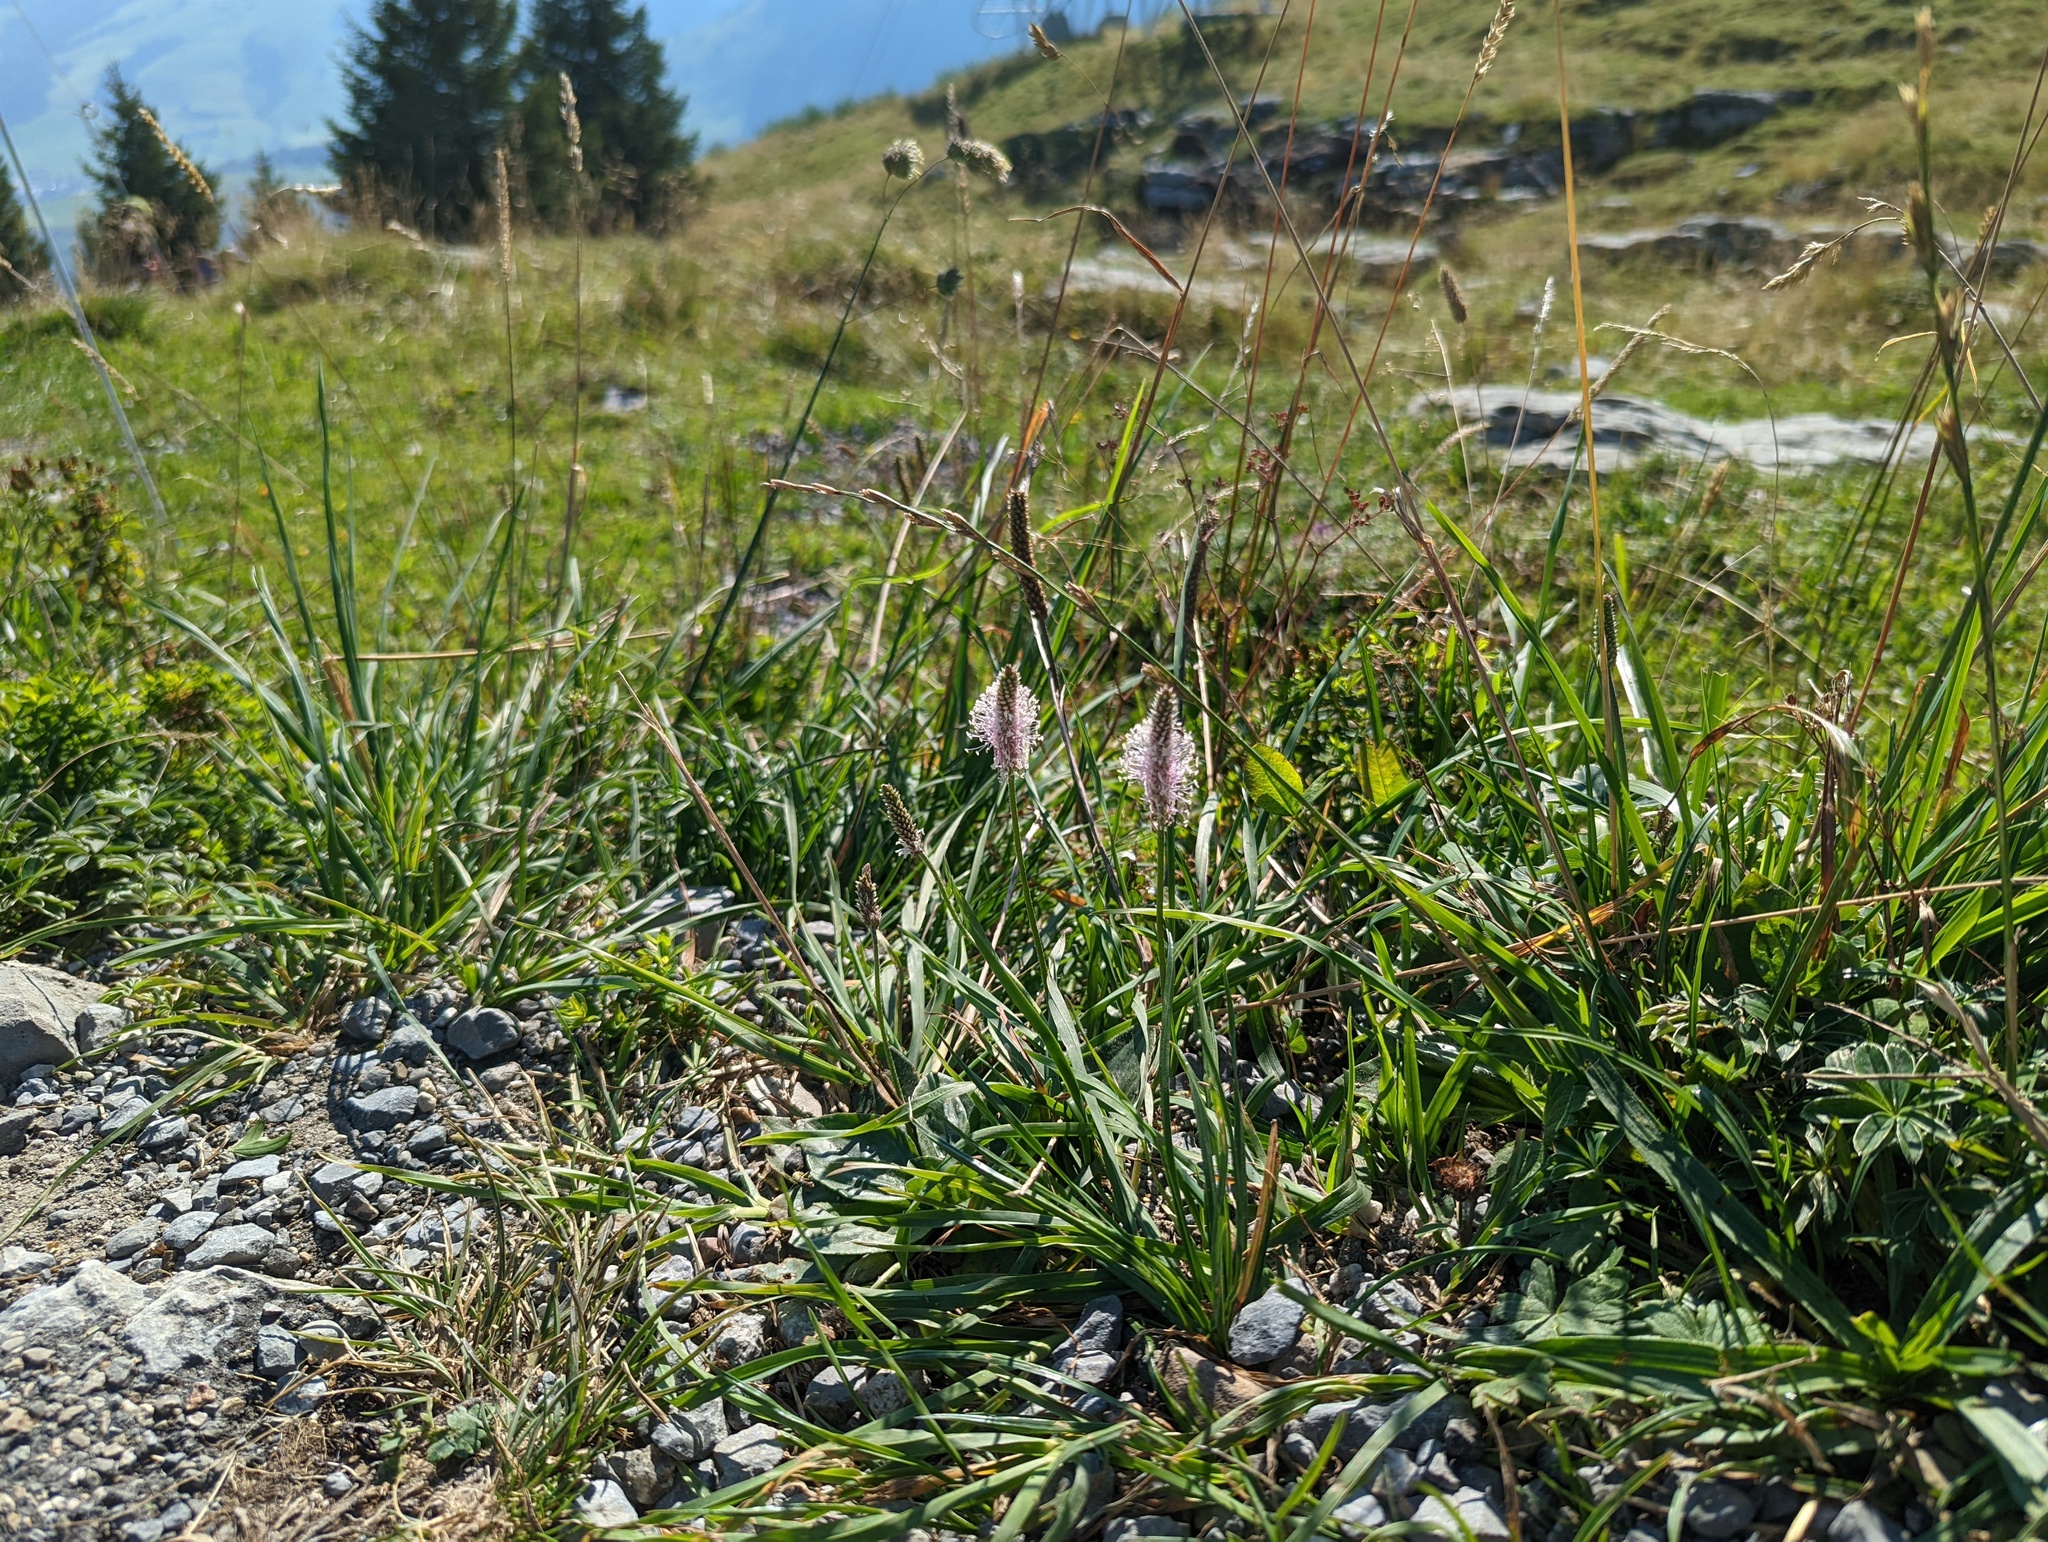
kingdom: Plantae
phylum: Tracheophyta
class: Magnoliopsida
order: Lamiales
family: Plantaginaceae
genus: Plantago
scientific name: Plantago media
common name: Hoary plantain
